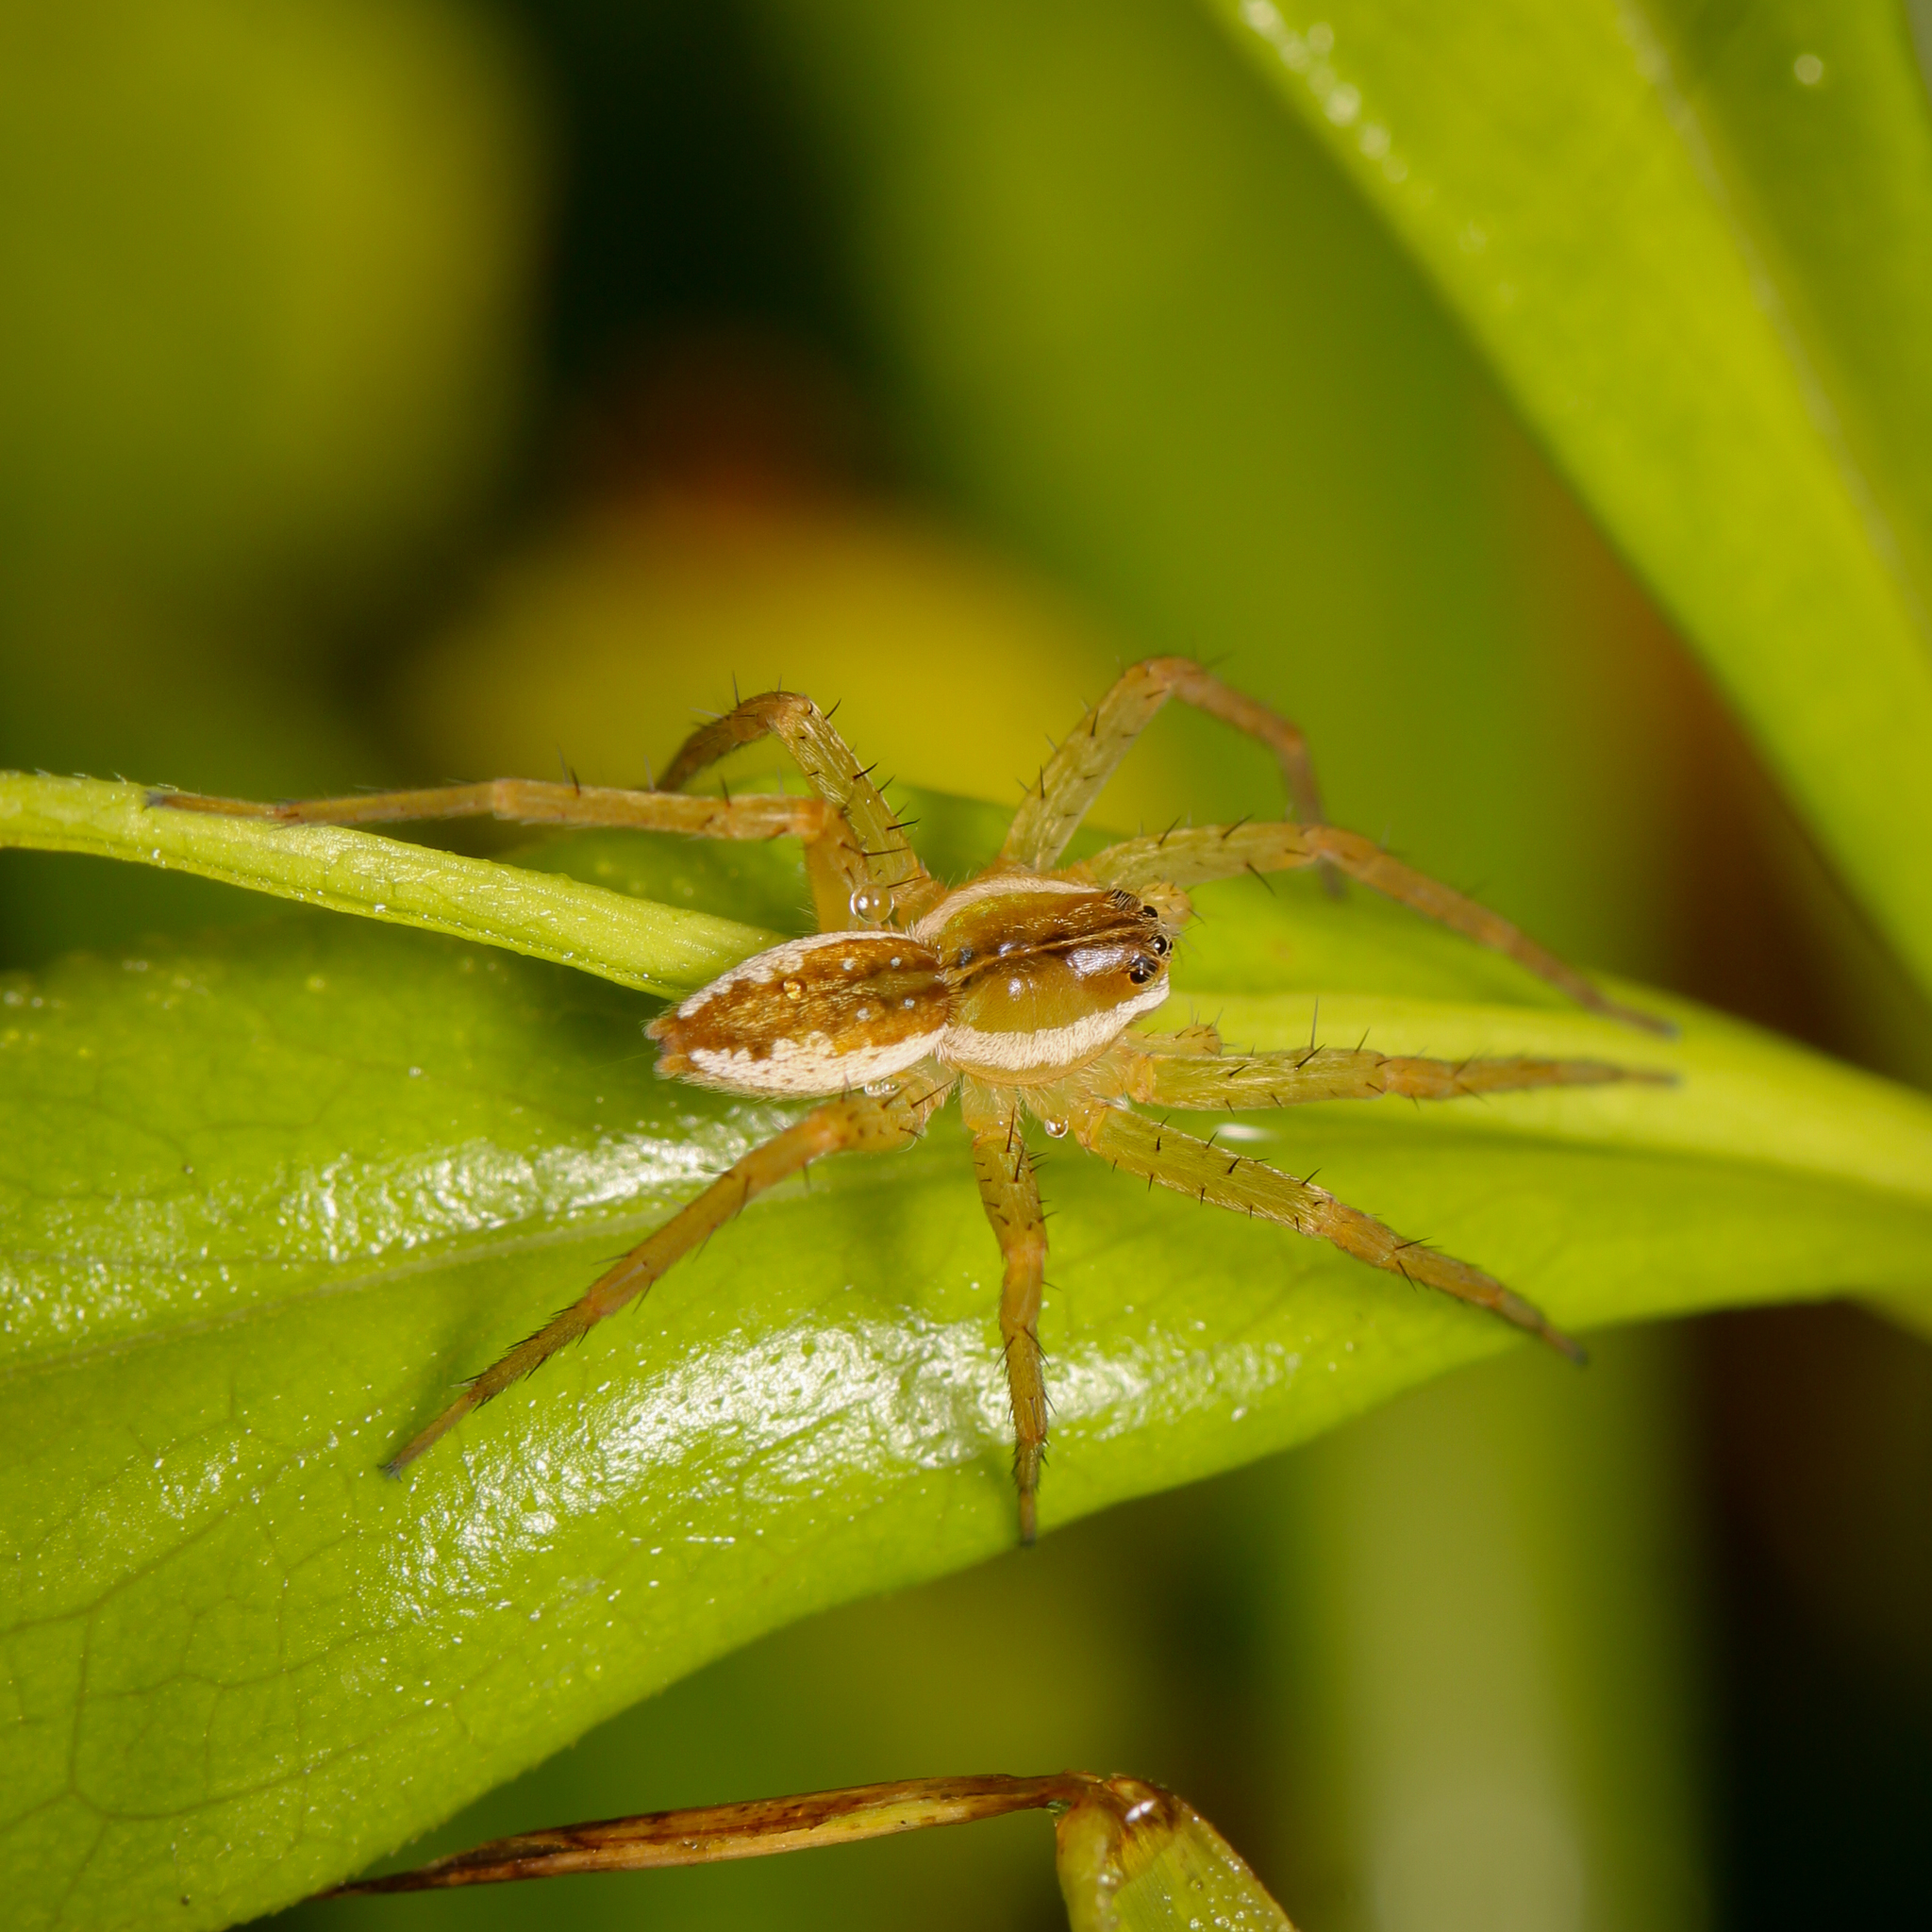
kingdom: Animalia
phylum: Arthropoda
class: Arachnida
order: Araneae
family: Pisauridae
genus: Dolomedes
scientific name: Dolomedes triton
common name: Six-spotted fishing spider
